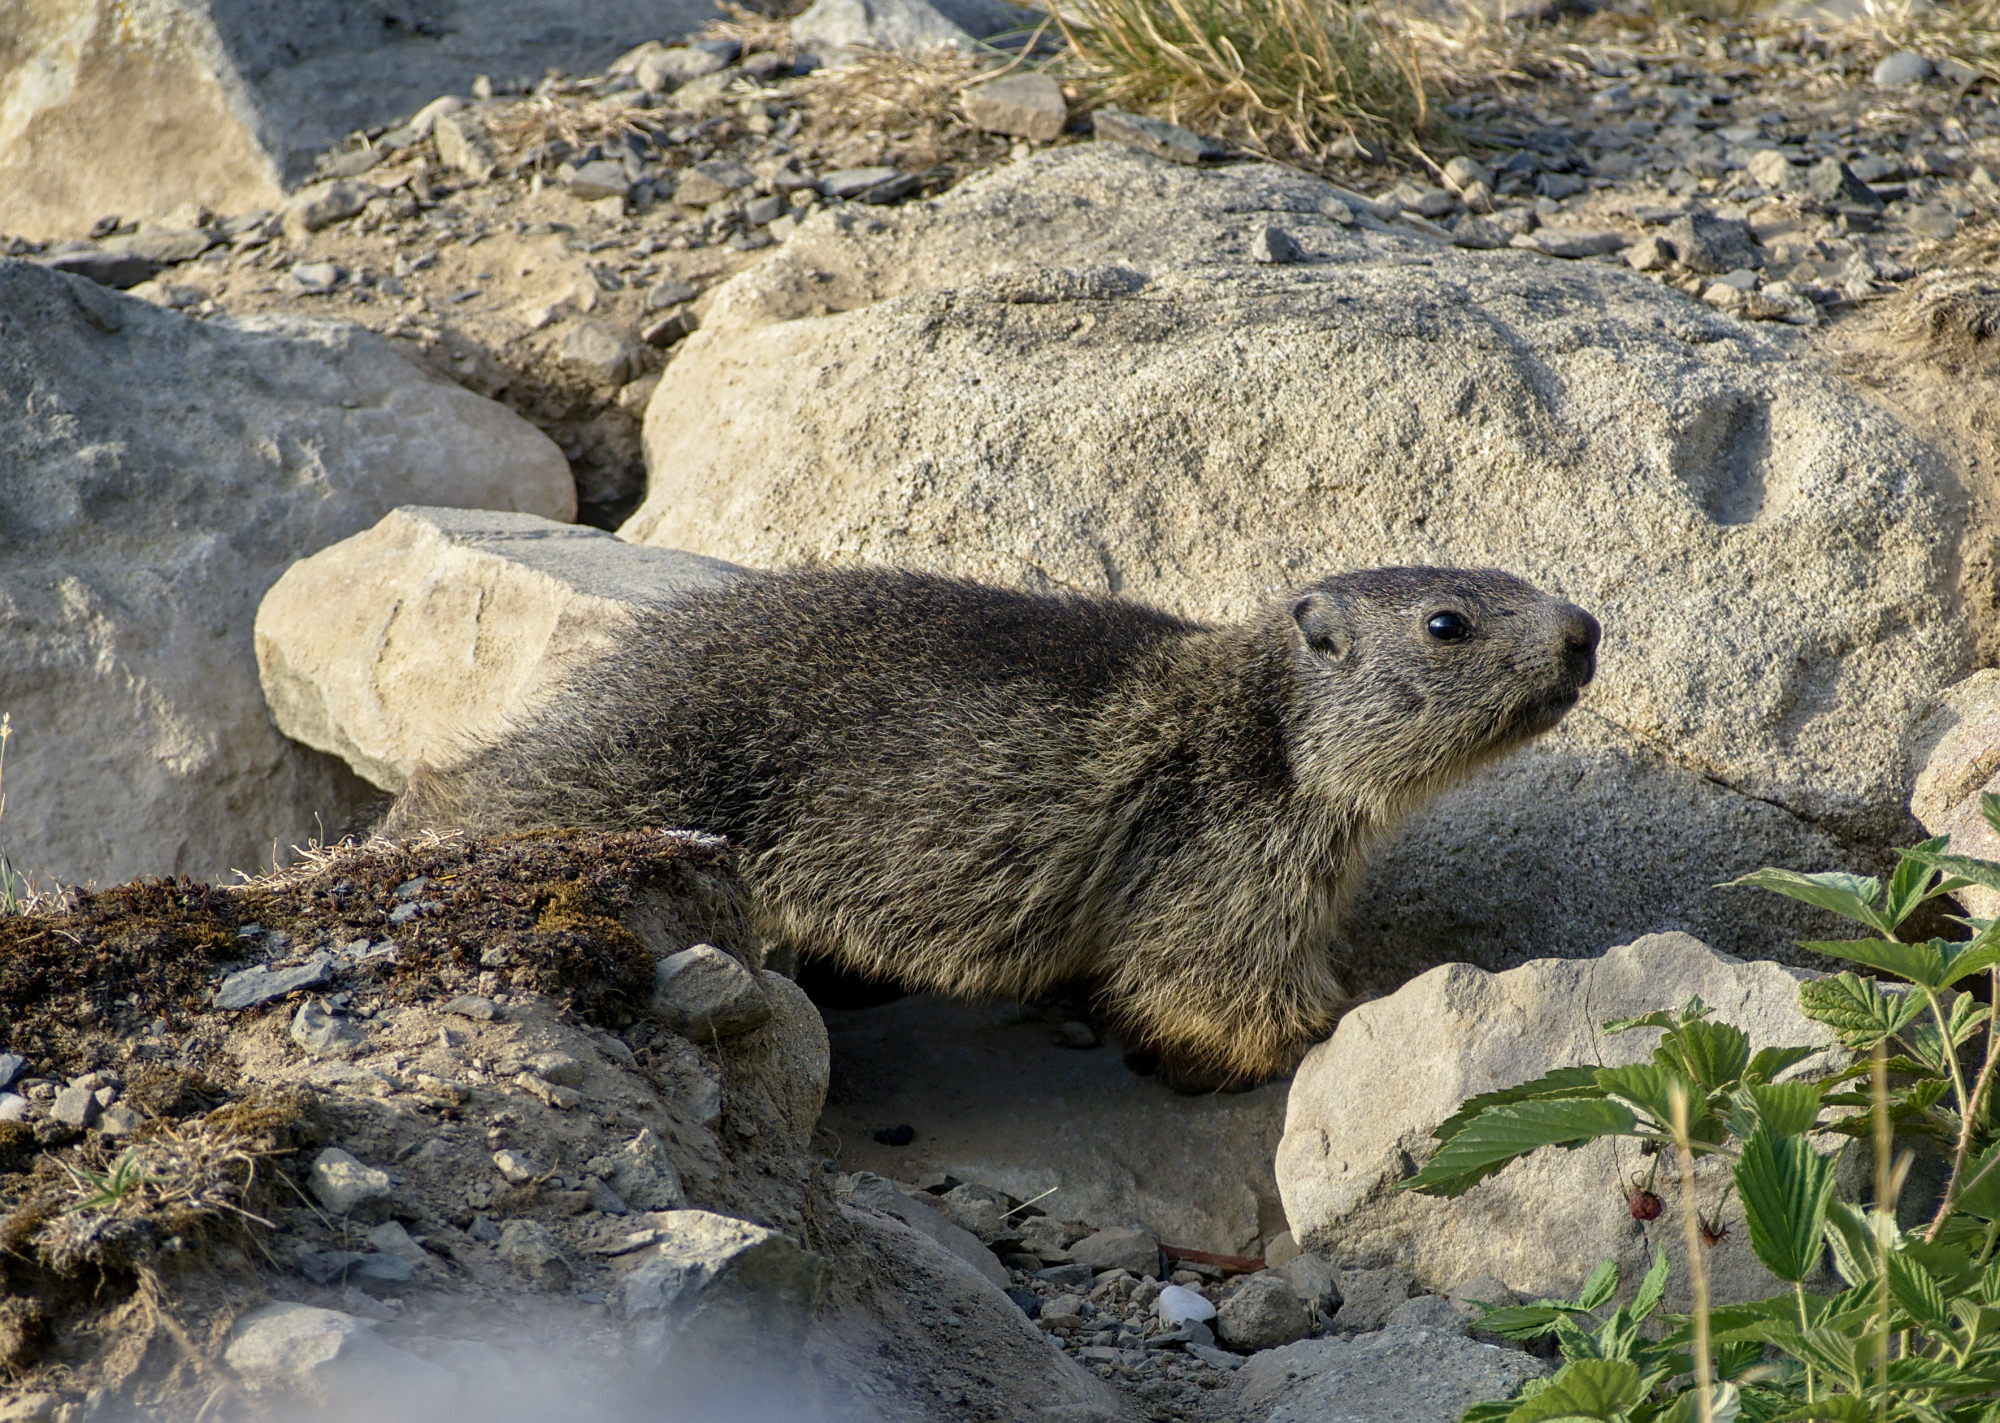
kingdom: Animalia
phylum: Chordata
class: Mammalia
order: Rodentia
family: Sciuridae
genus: Marmota
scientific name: Marmota marmota
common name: Alpine marmot
